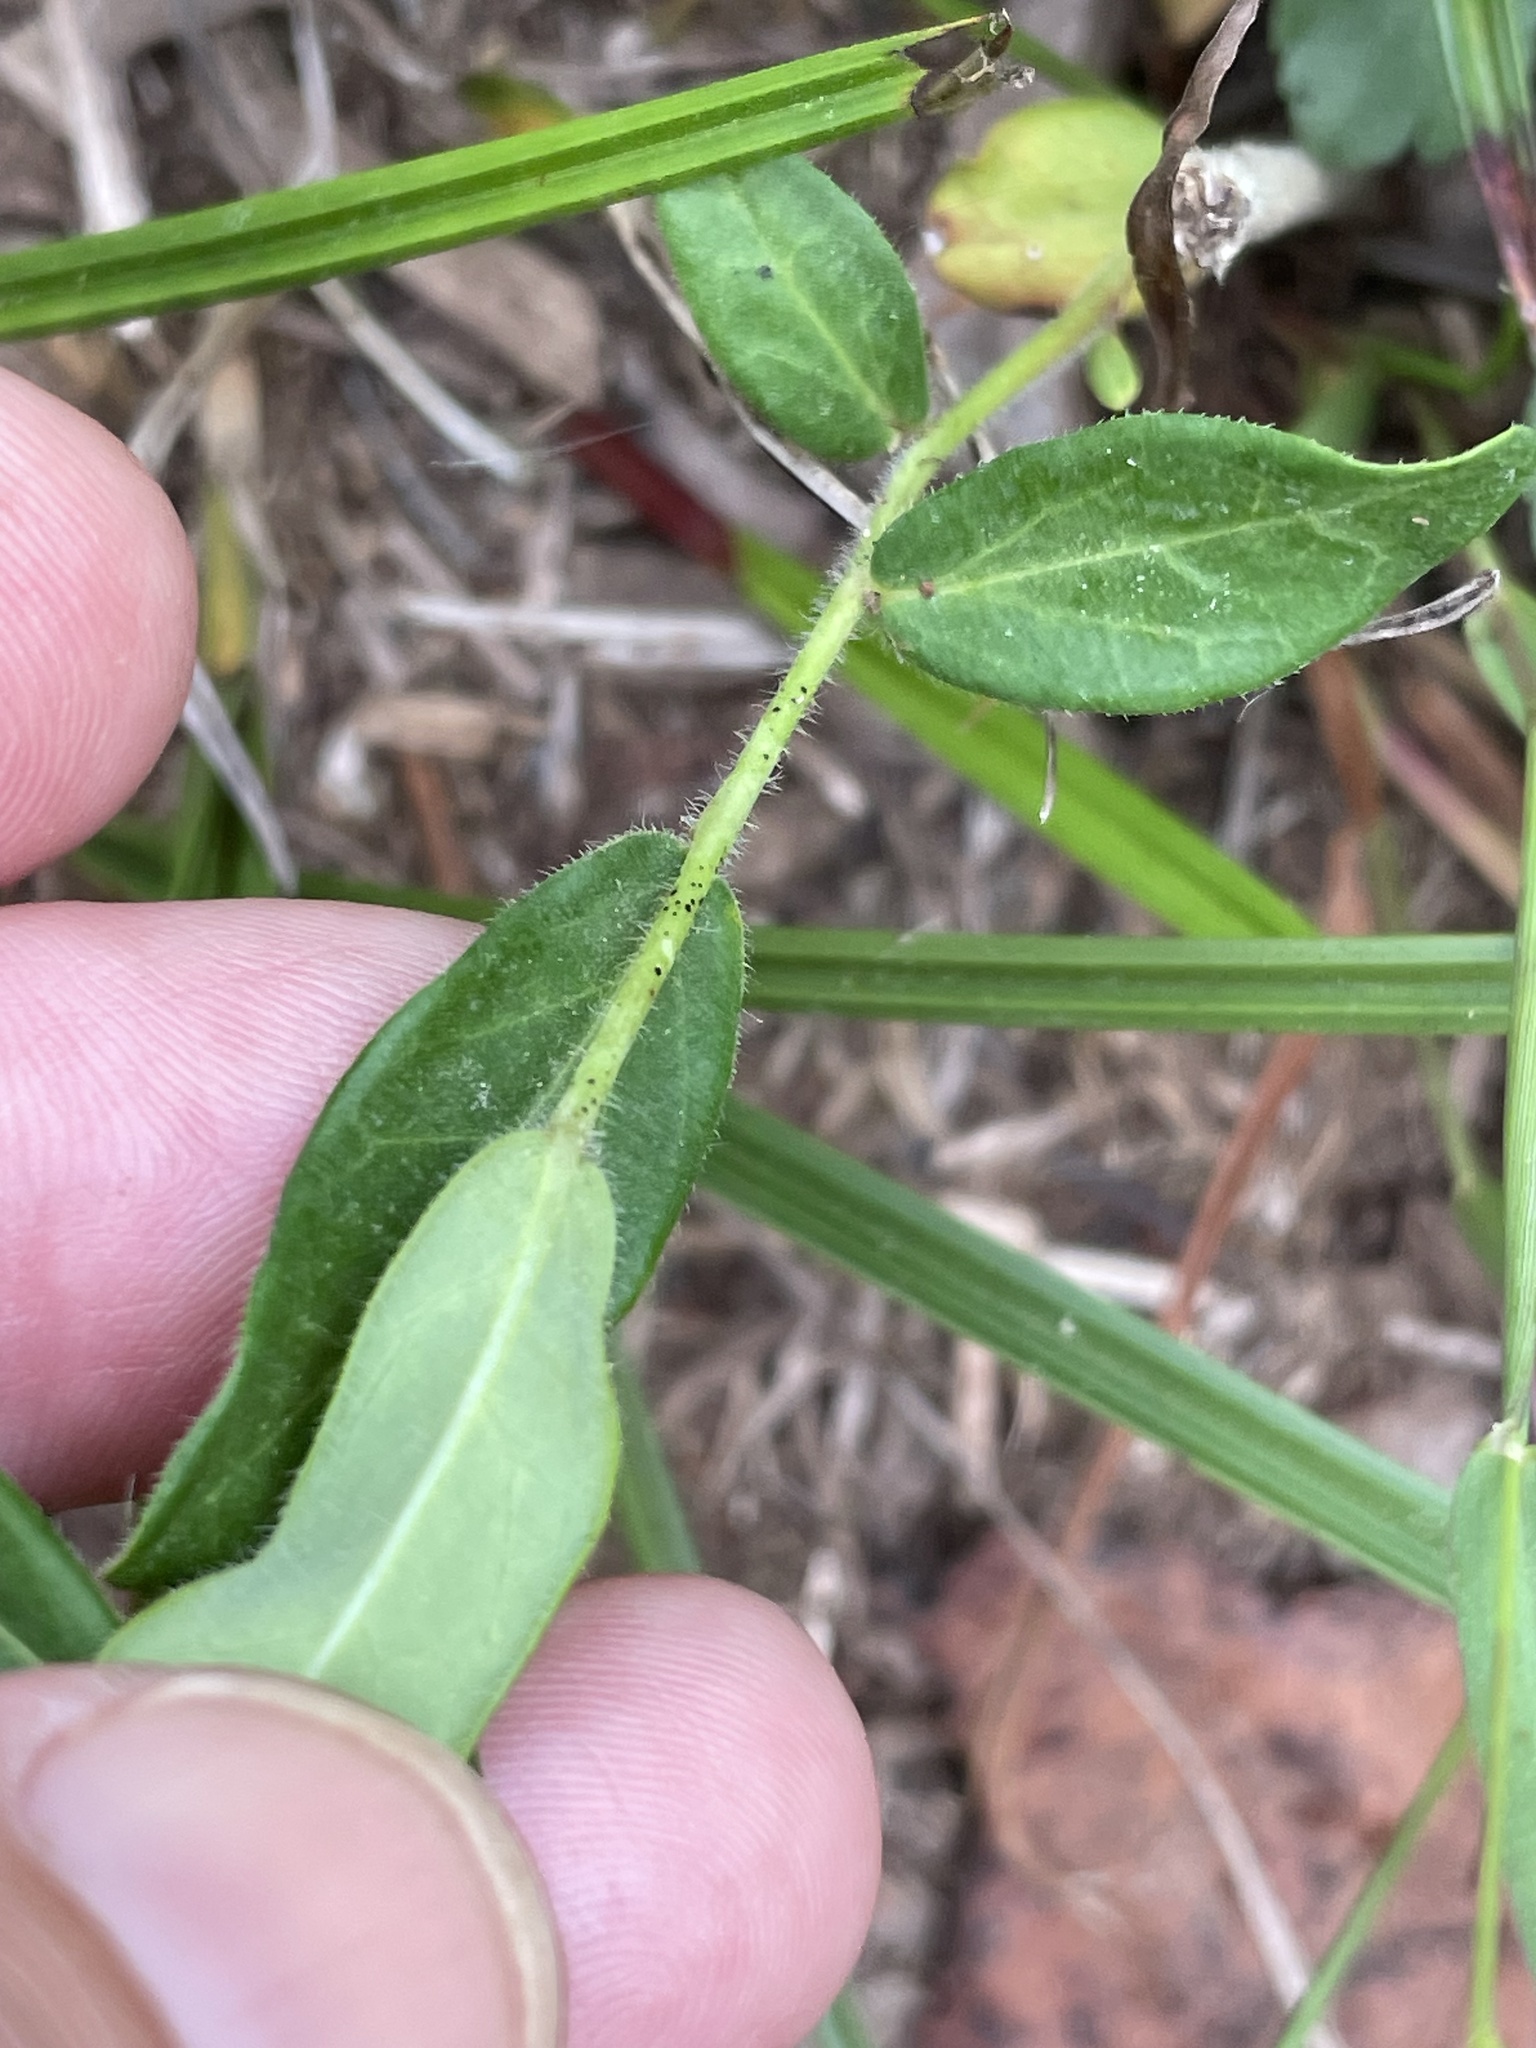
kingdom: Plantae
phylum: Tracheophyta
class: Magnoliopsida
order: Malpighiales
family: Euphorbiaceae
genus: Euphorbia
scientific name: Euphorbia pubentissima
